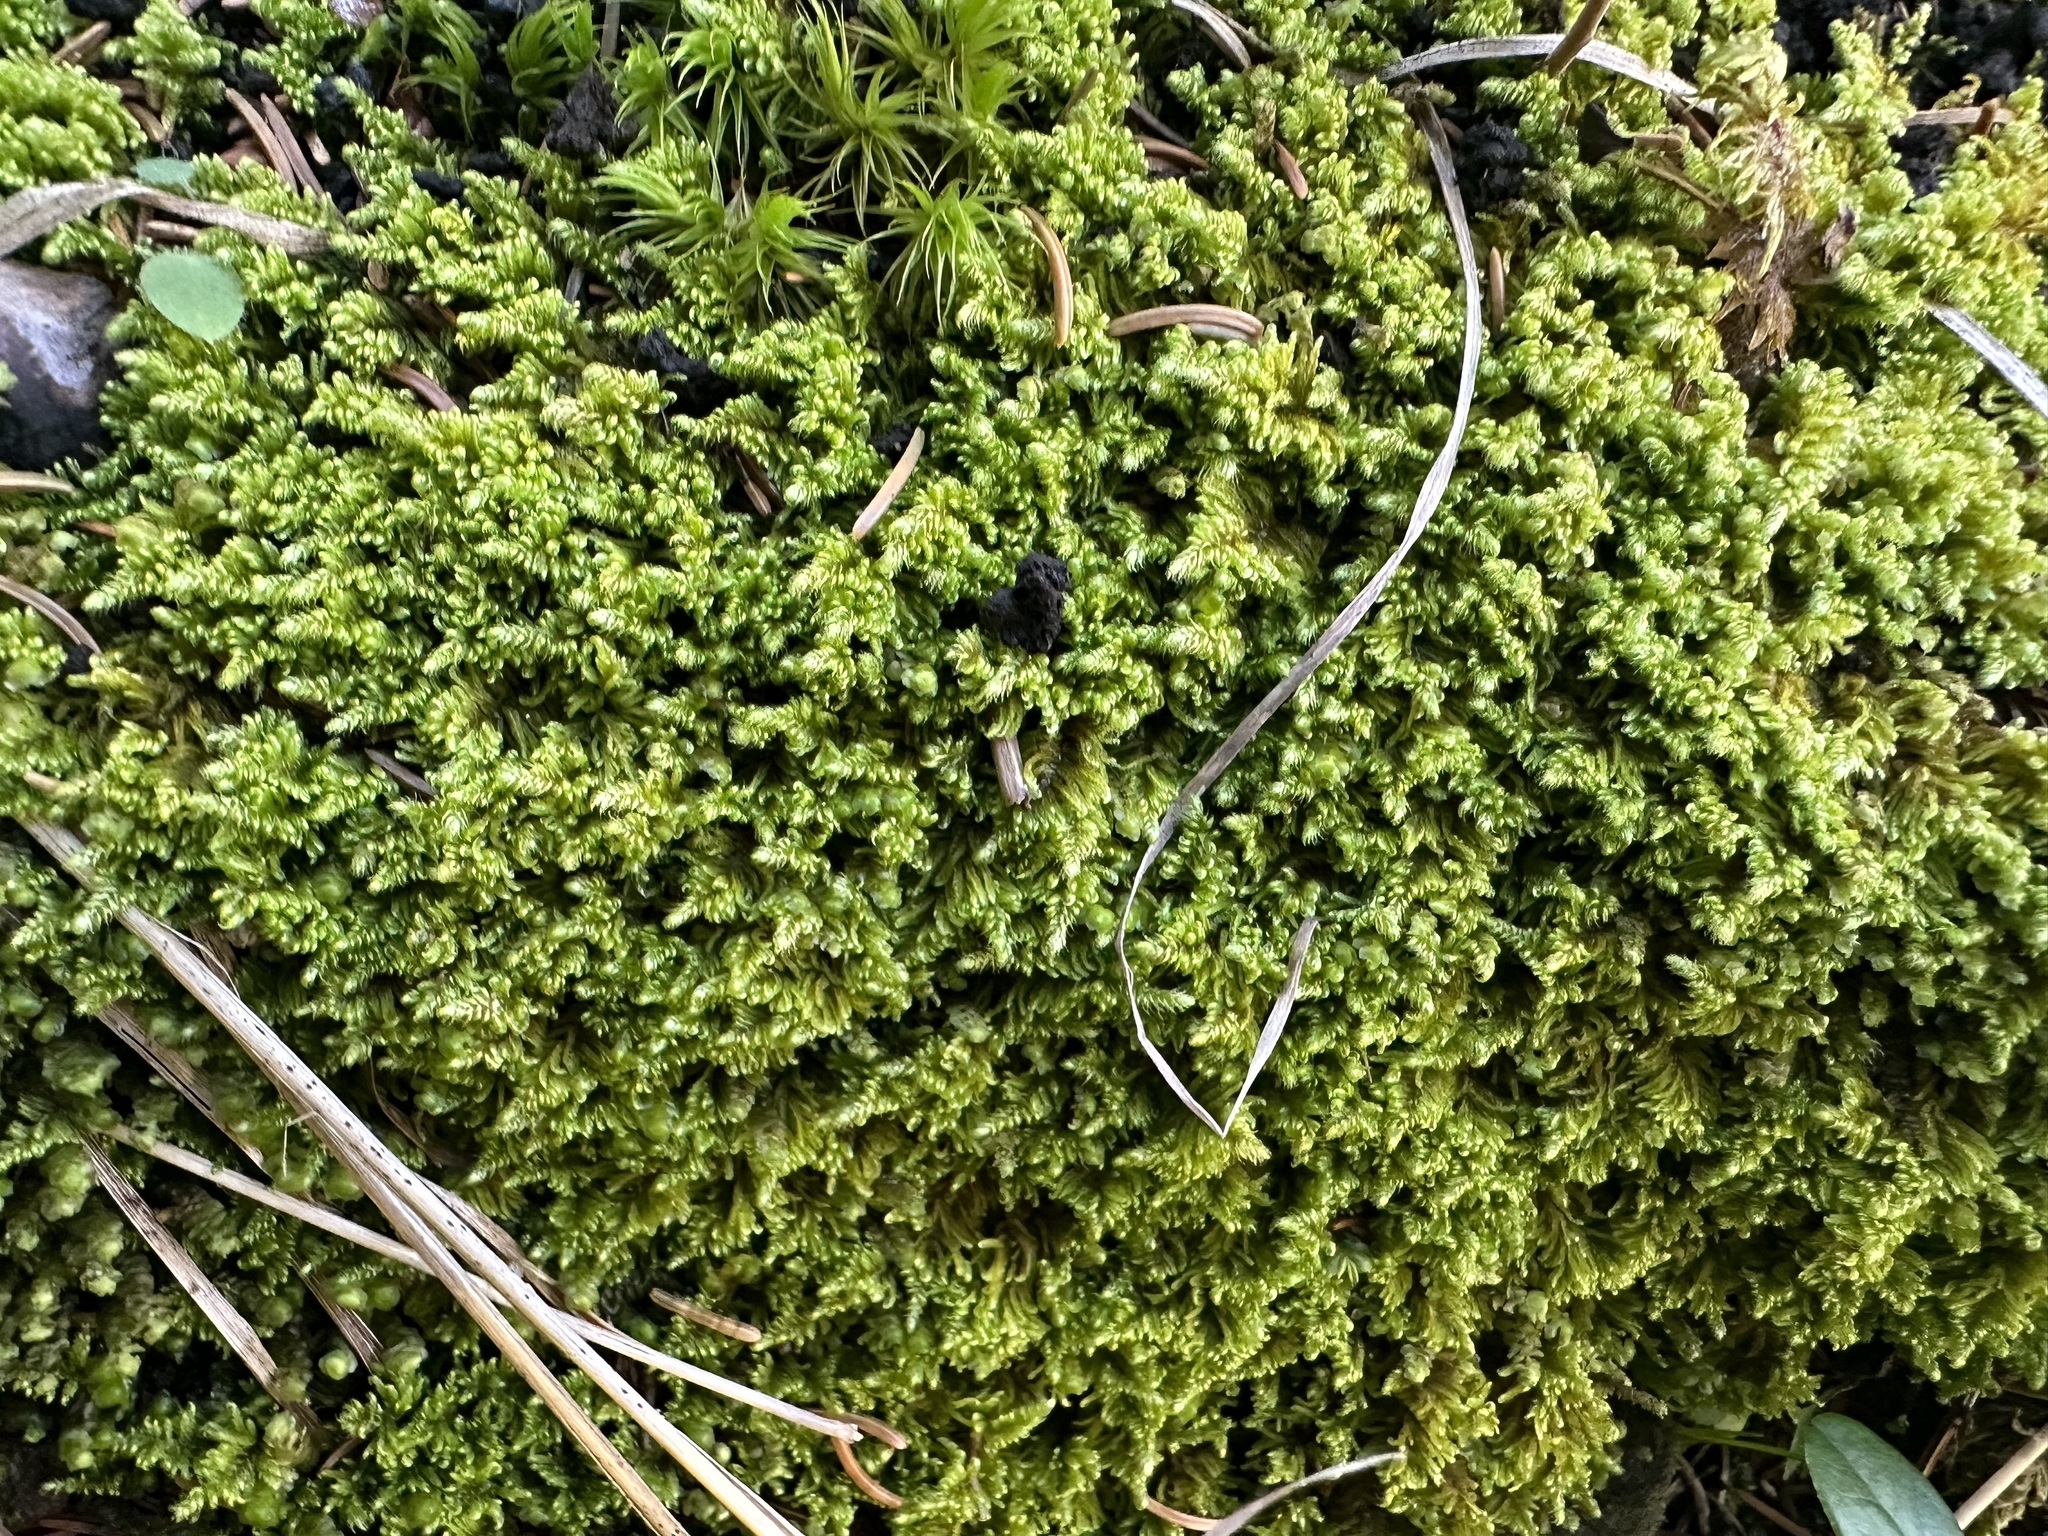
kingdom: Plantae
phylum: Bryophyta
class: Bryopsida
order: Hypnales
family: Myuriaceae
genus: Ctenidium
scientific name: Ctenidium molluscum
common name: Chalk comb-moss
